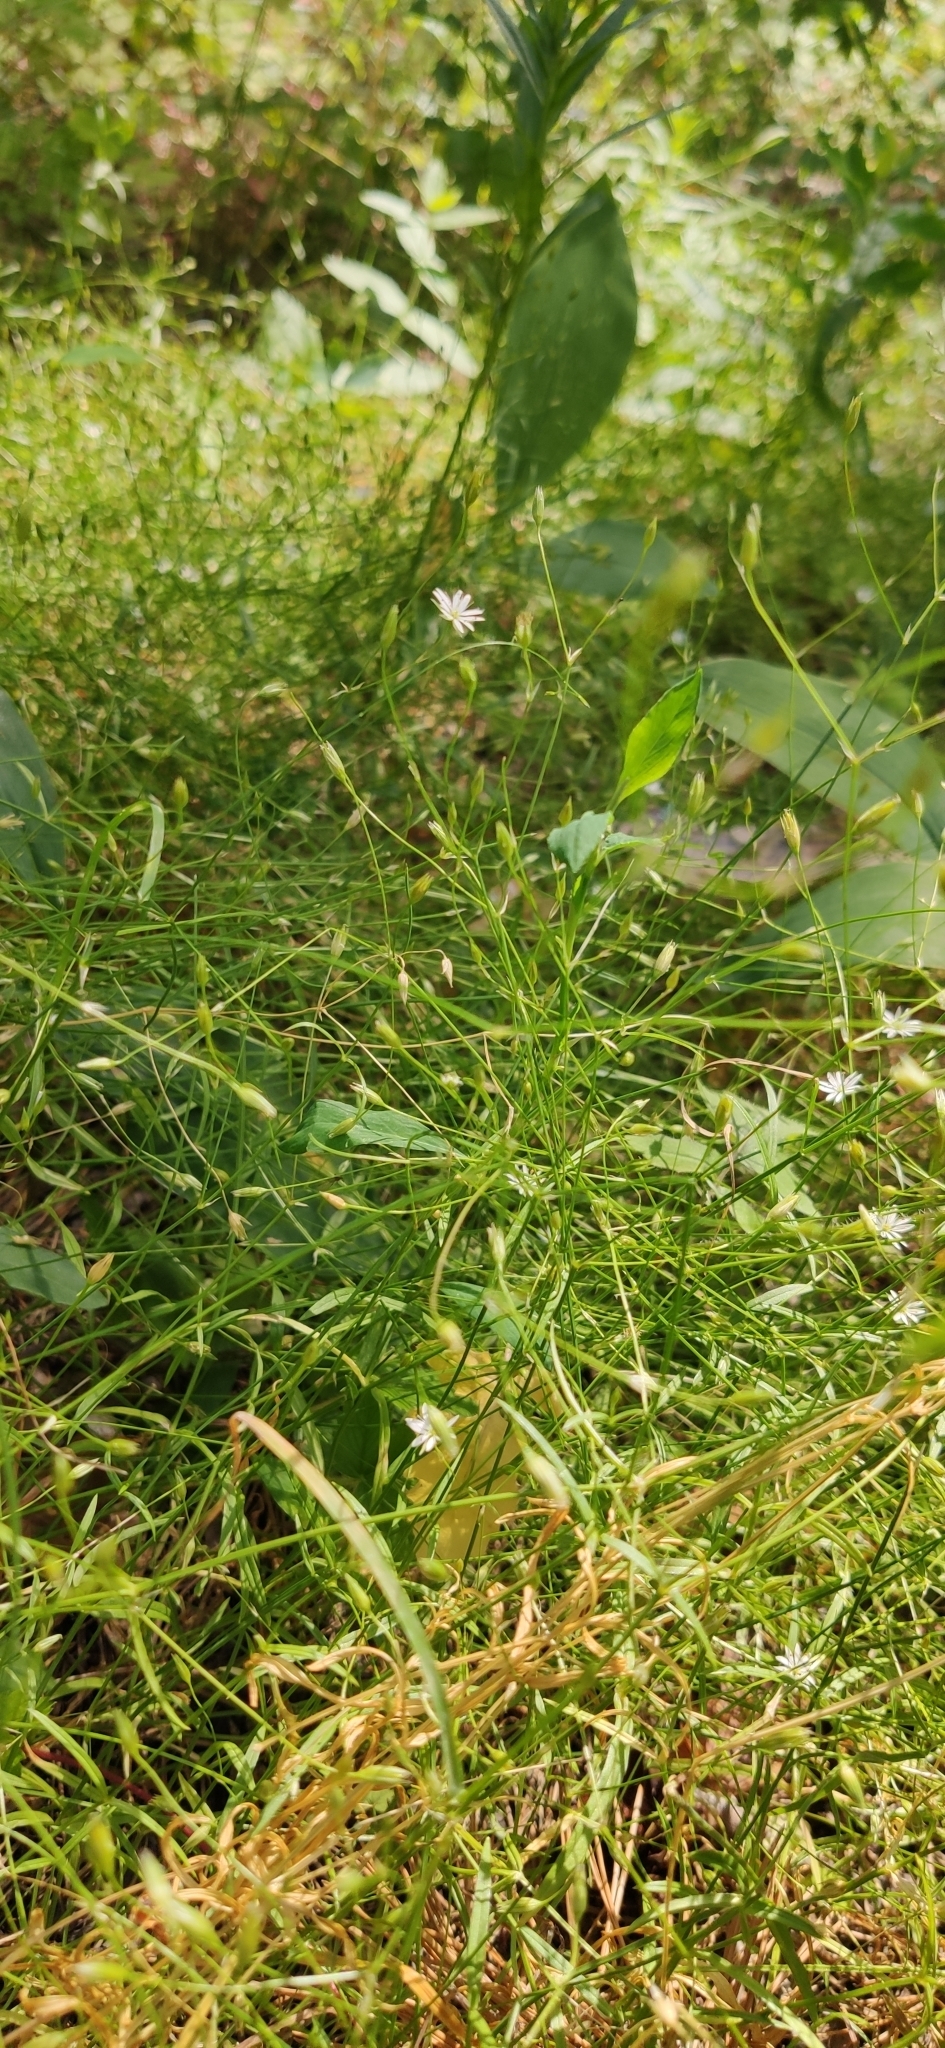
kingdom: Plantae
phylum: Tracheophyta
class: Magnoliopsida
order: Caryophyllales
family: Caryophyllaceae
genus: Stellaria
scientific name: Stellaria graminea
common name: Grass-like starwort
